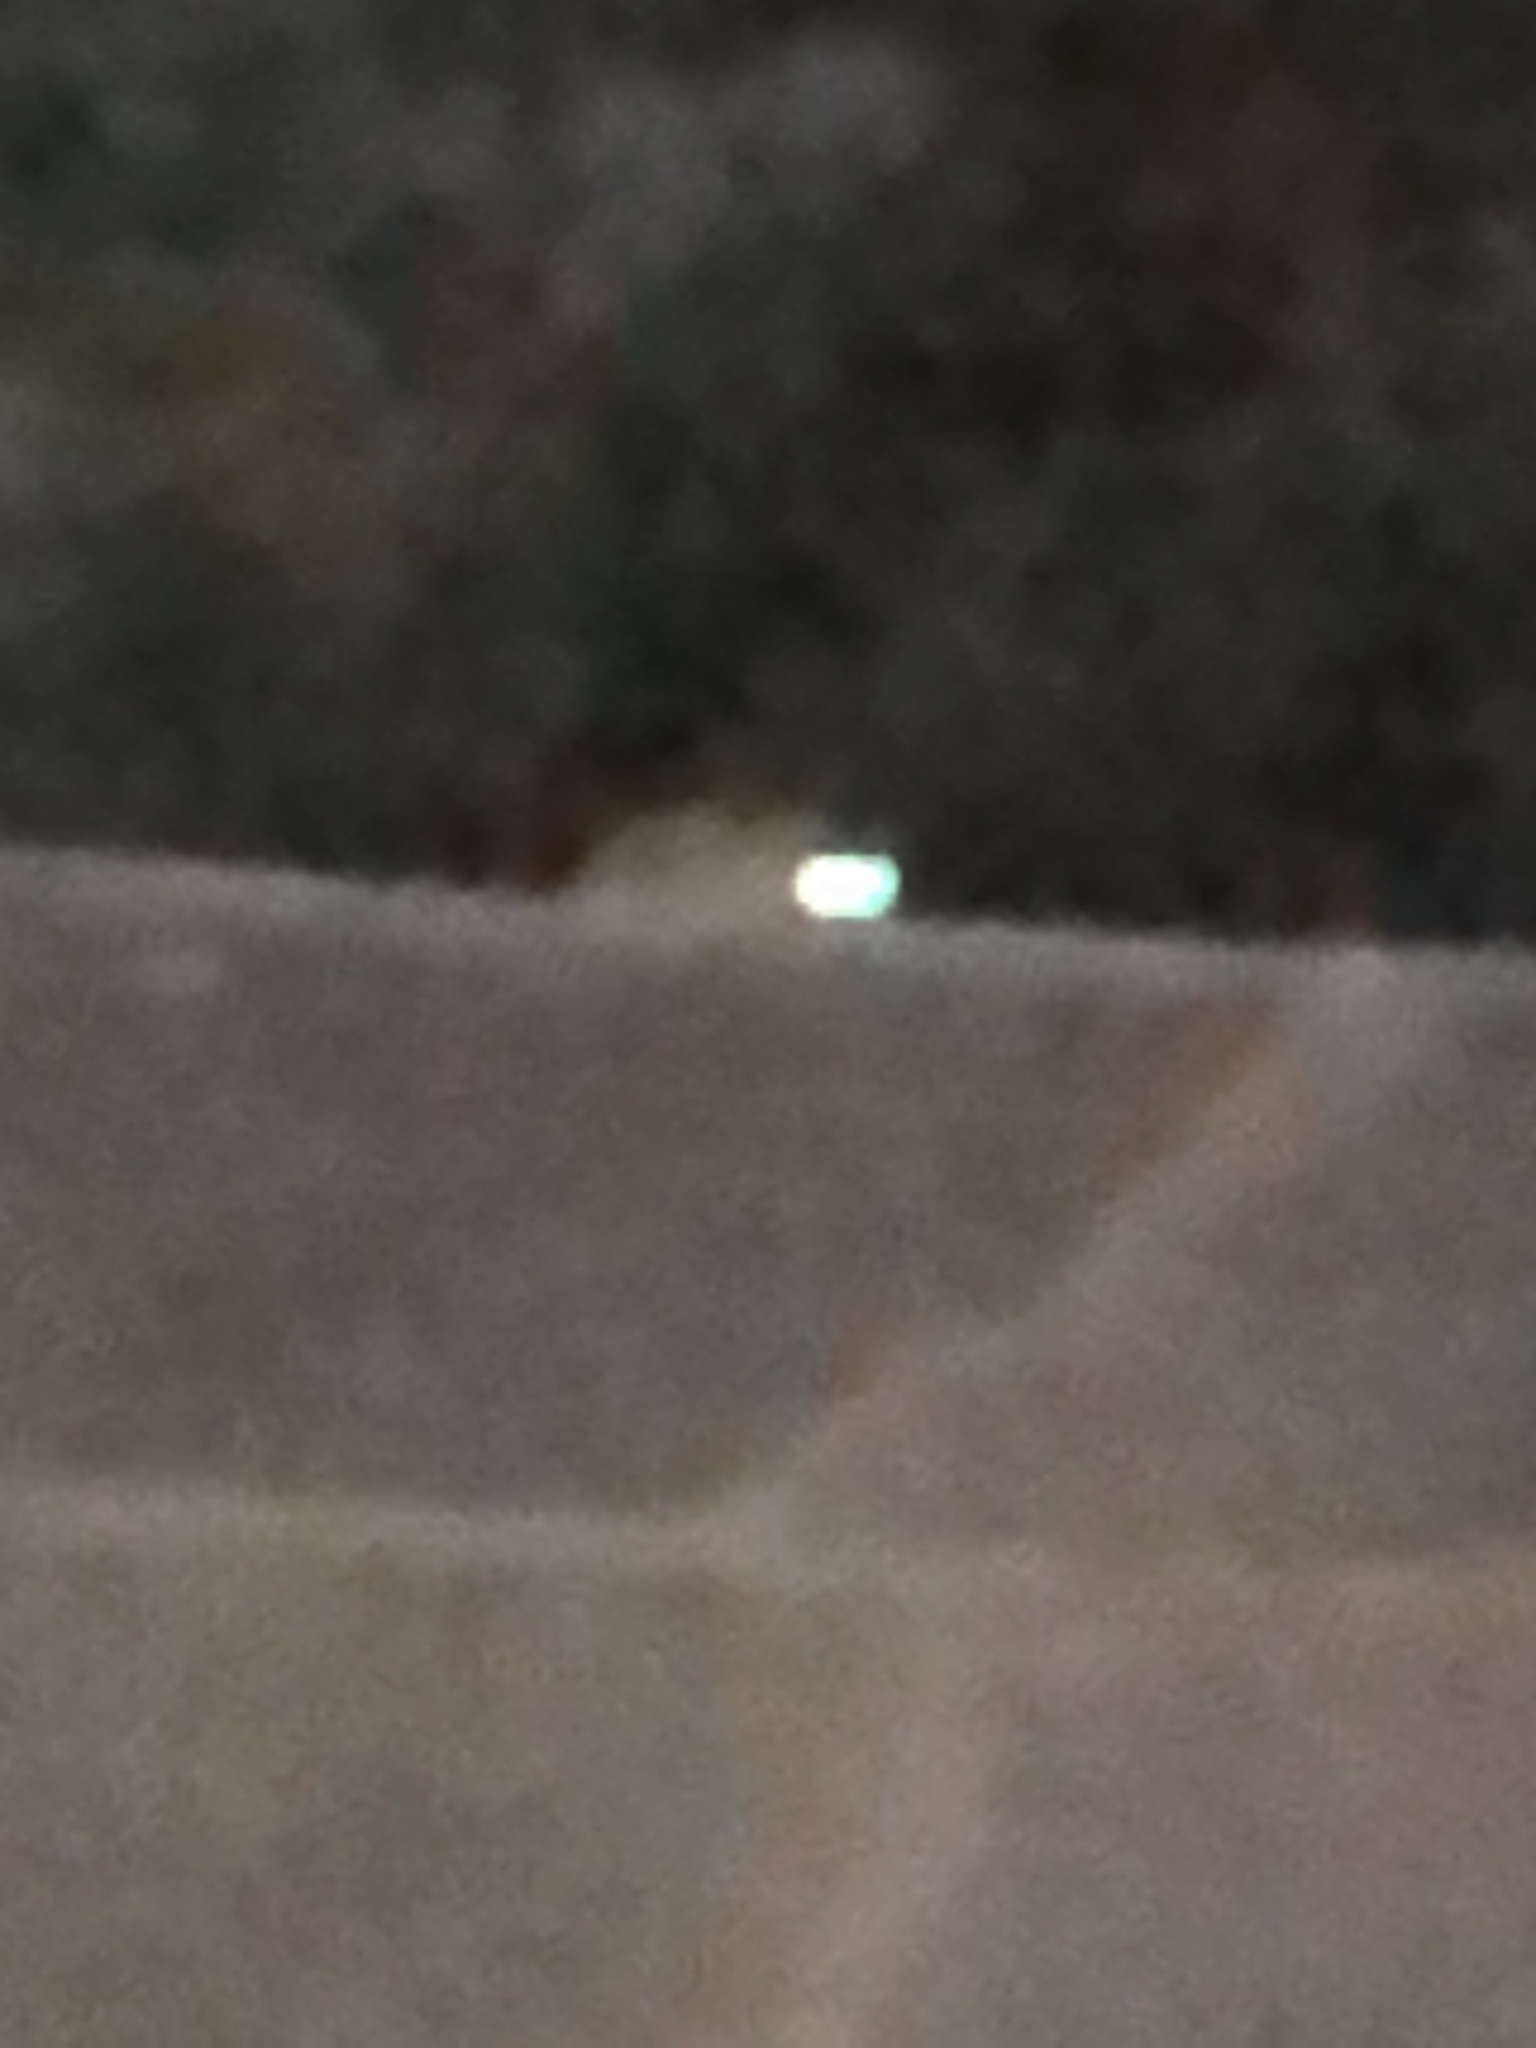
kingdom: Animalia
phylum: Chordata
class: Mammalia
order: Carnivora
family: Felidae
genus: Lynx
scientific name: Lynx rufus
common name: Bobcat
